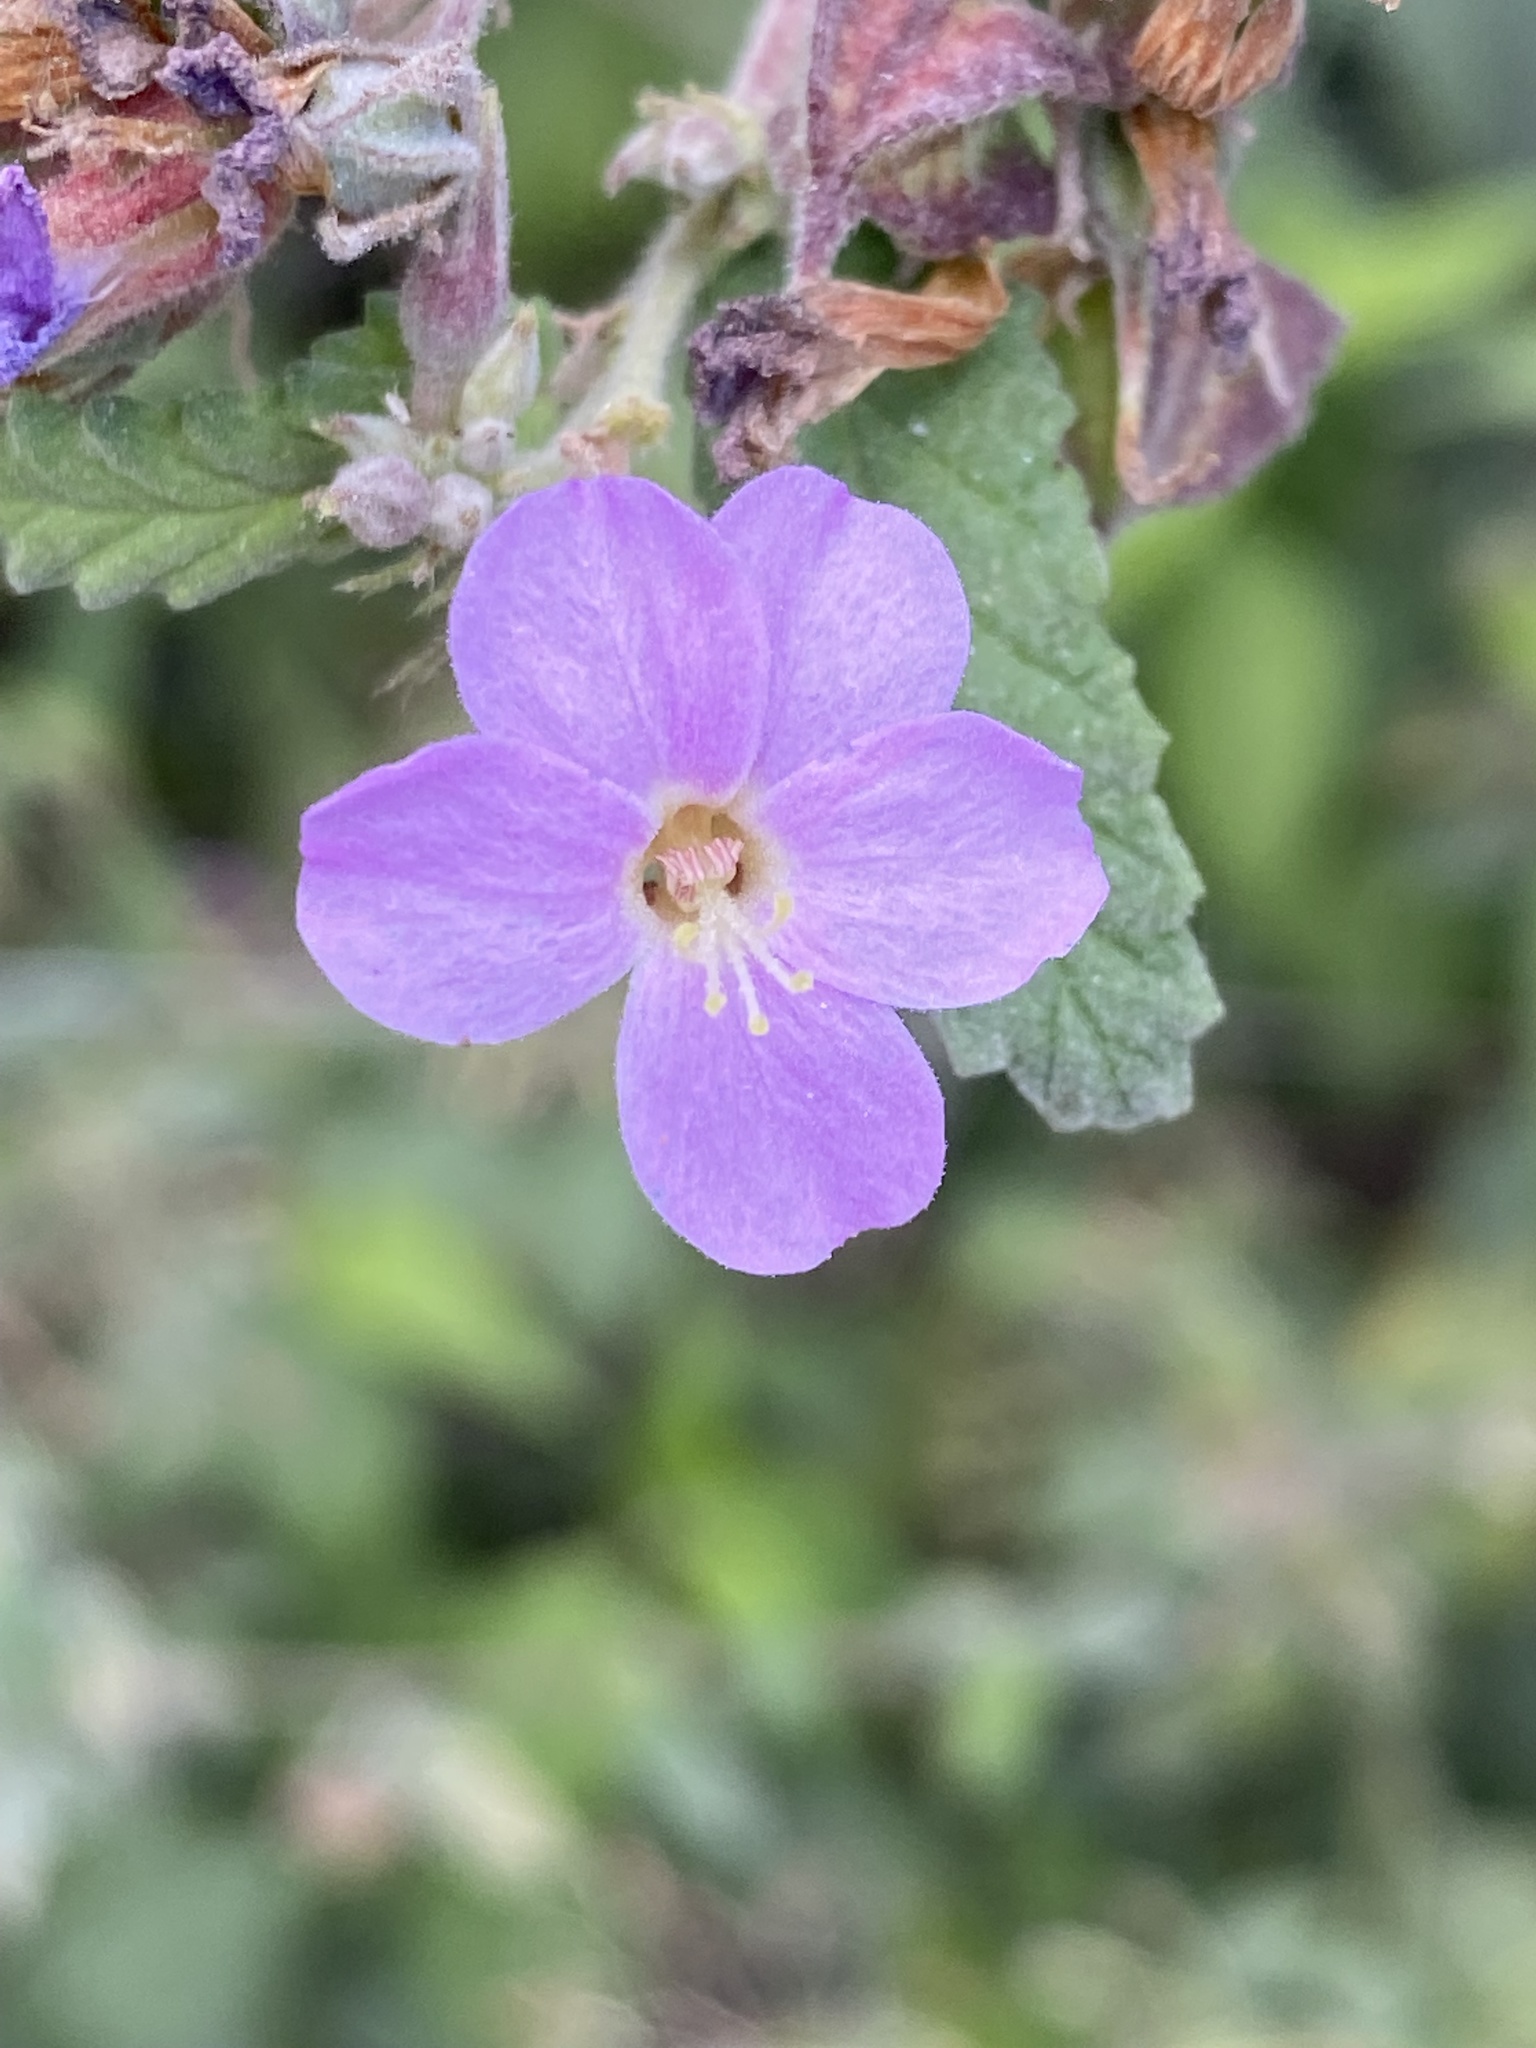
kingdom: Plantae
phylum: Tracheophyta
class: Magnoliopsida
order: Malvales
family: Malvaceae
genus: Melochia
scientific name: Melochia tomentosa
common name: Black torch
